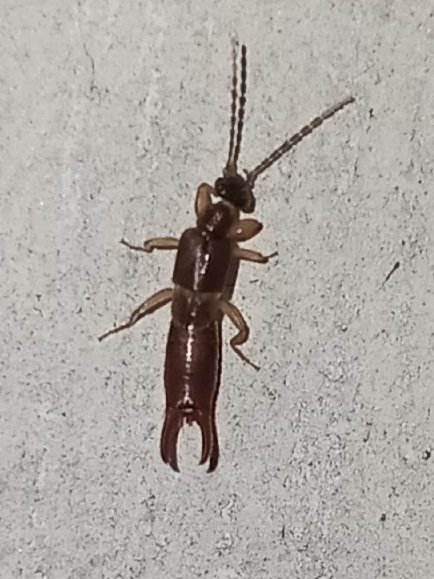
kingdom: Animalia
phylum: Arthropoda
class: Insecta
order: Dermaptera
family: Spongiphoridae
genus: Labia
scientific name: Labia minor
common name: Lesser earwig
